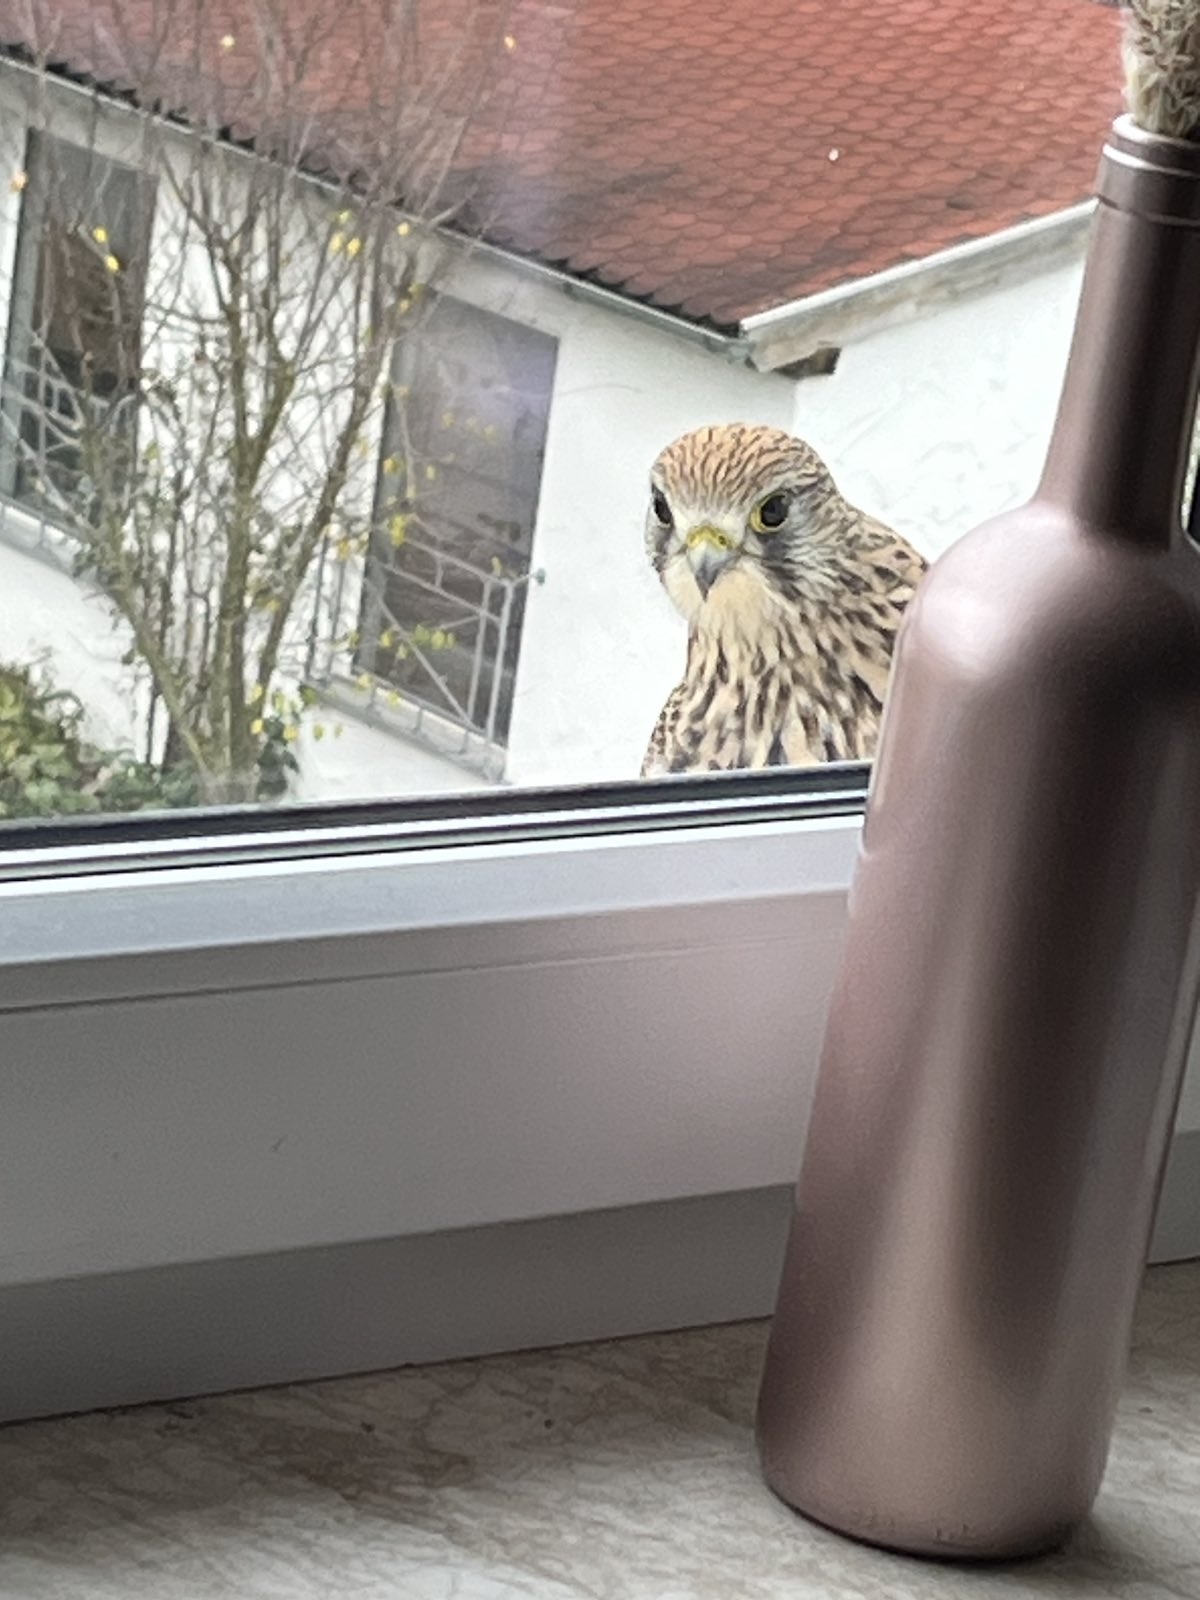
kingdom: Animalia
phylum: Chordata
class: Aves
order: Falconiformes
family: Falconidae
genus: Falco
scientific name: Falco tinnunculus
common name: Common kestrel
